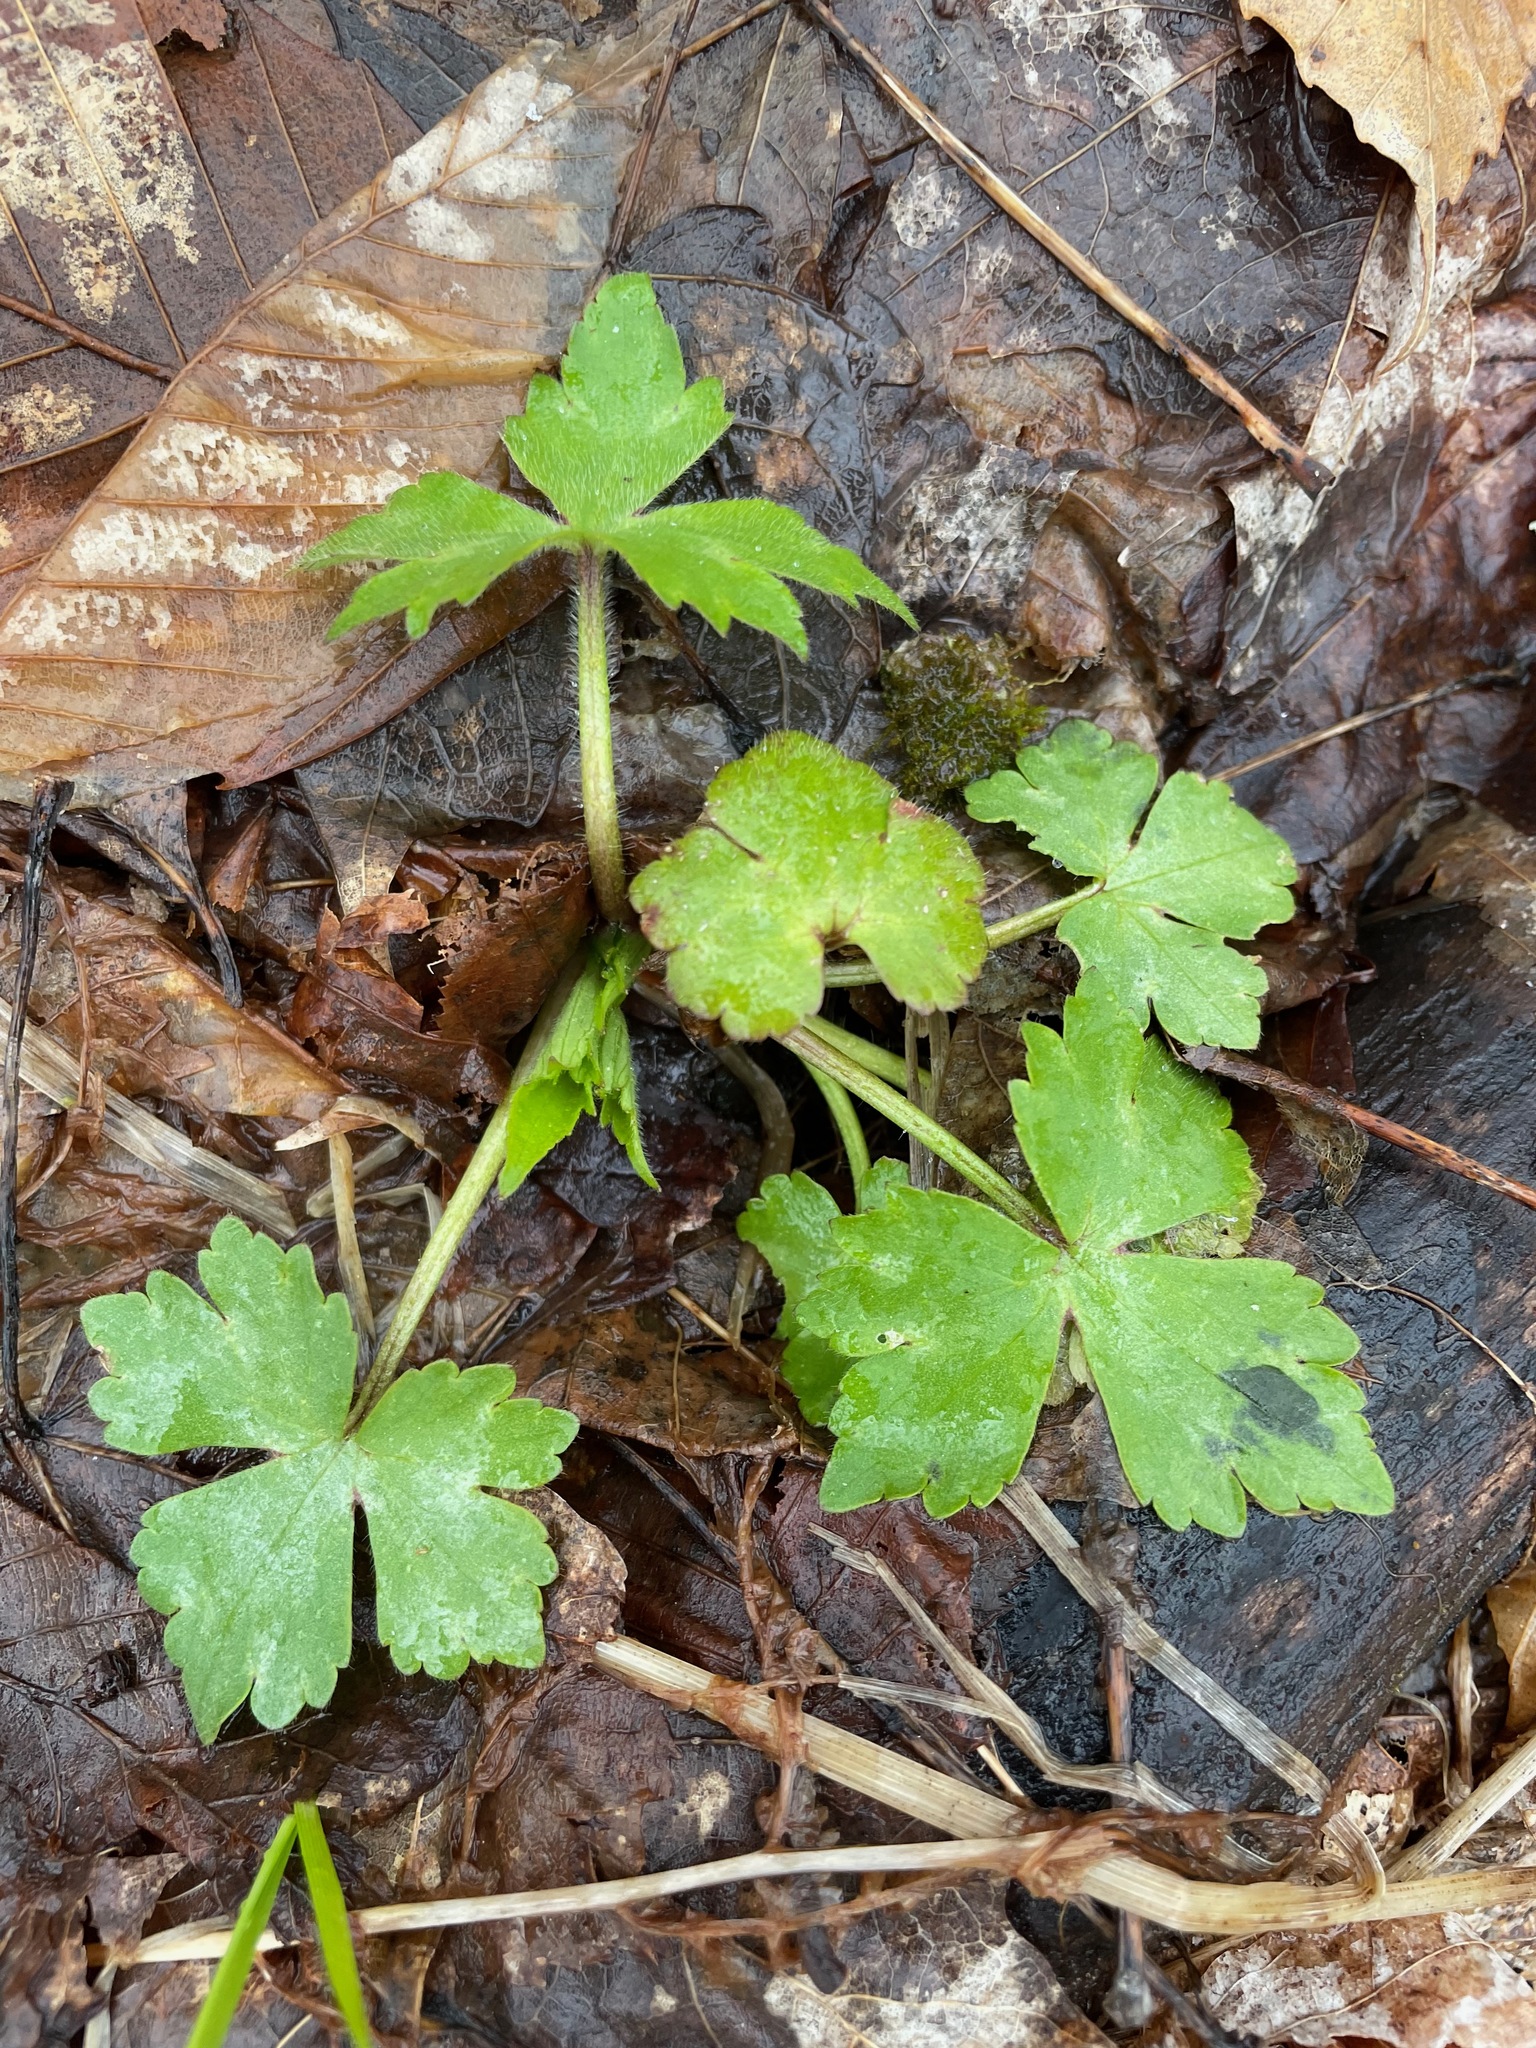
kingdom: Plantae
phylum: Tracheophyta
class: Magnoliopsida
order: Ranunculales
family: Ranunculaceae
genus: Ranunculus
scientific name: Ranunculus recurvatus
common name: Blisterwort
